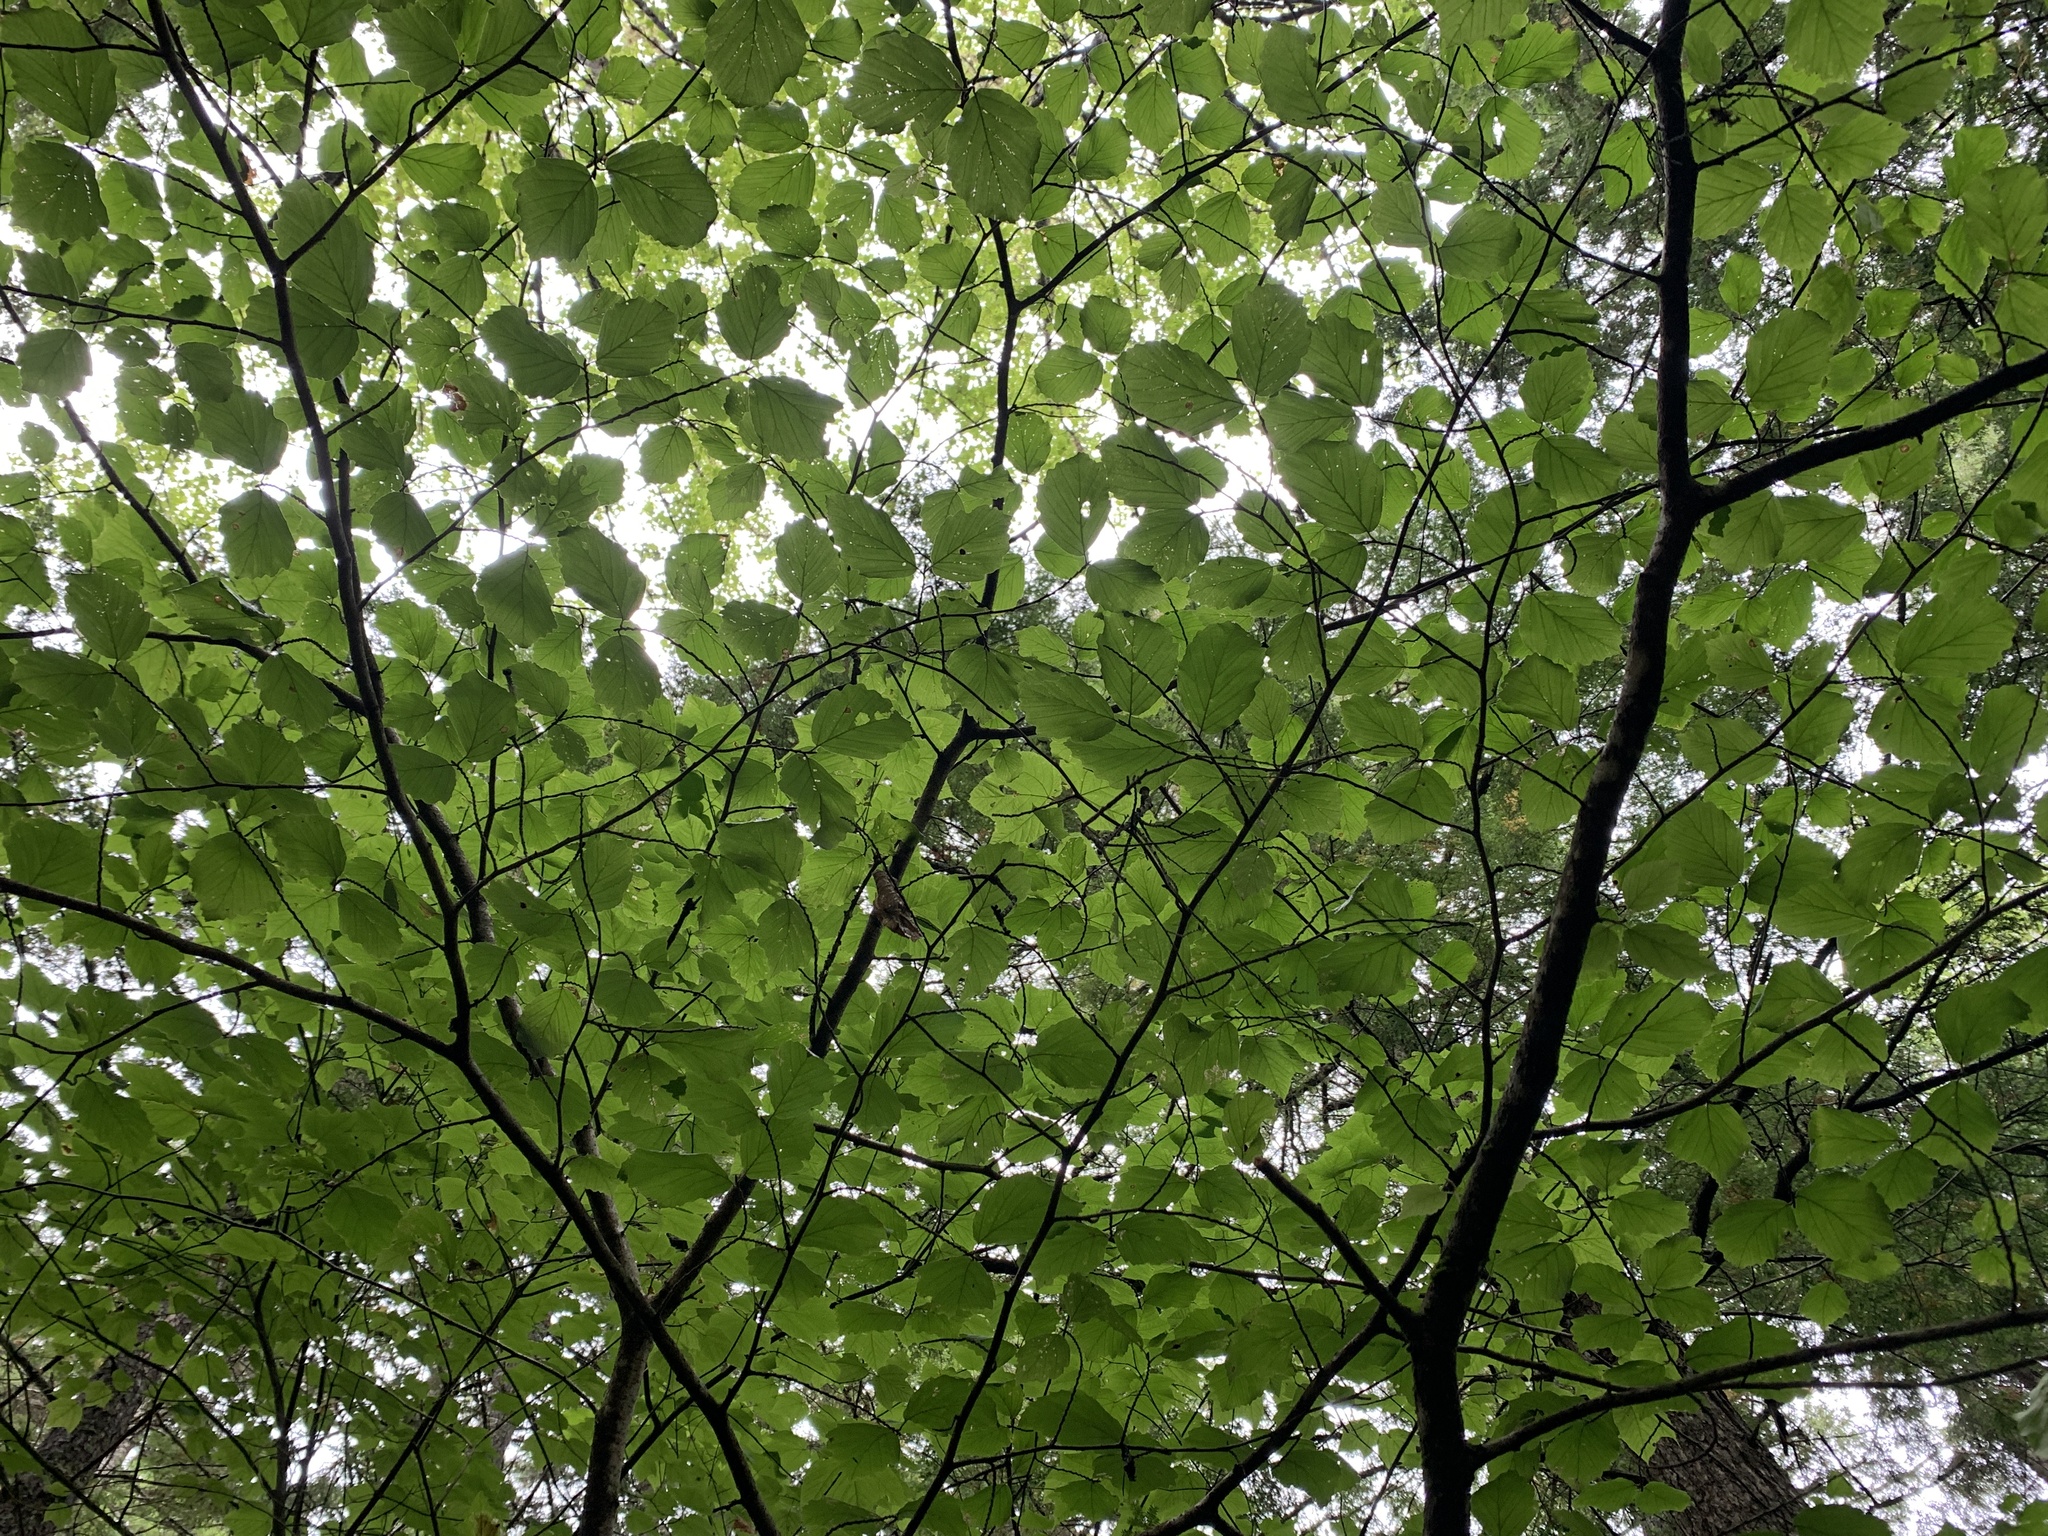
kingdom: Plantae
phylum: Tracheophyta
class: Magnoliopsida
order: Saxifragales
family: Hamamelidaceae
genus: Hamamelis
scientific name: Hamamelis virginiana
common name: Witch-hazel
